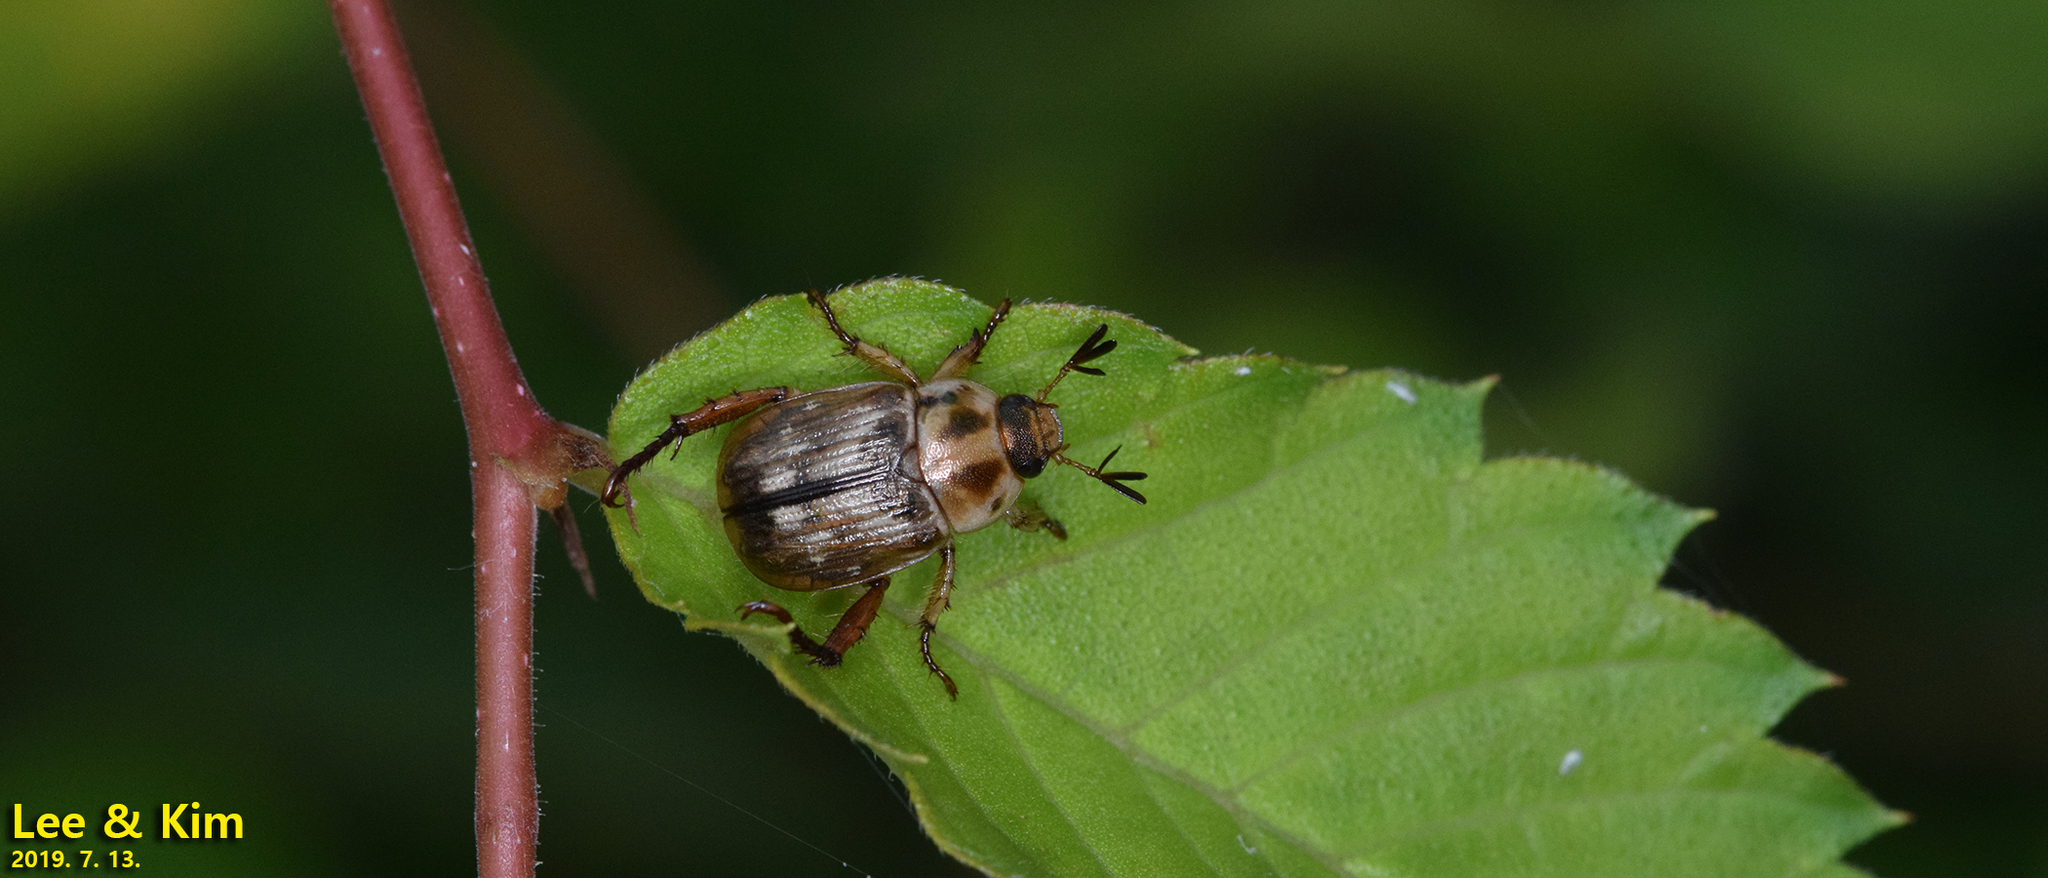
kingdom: Animalia
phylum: Arthropoda
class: Insecta
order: Coleoptera
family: Scarabaeidae
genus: Exomala
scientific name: Exomala orientalis
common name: Oriental beetle
